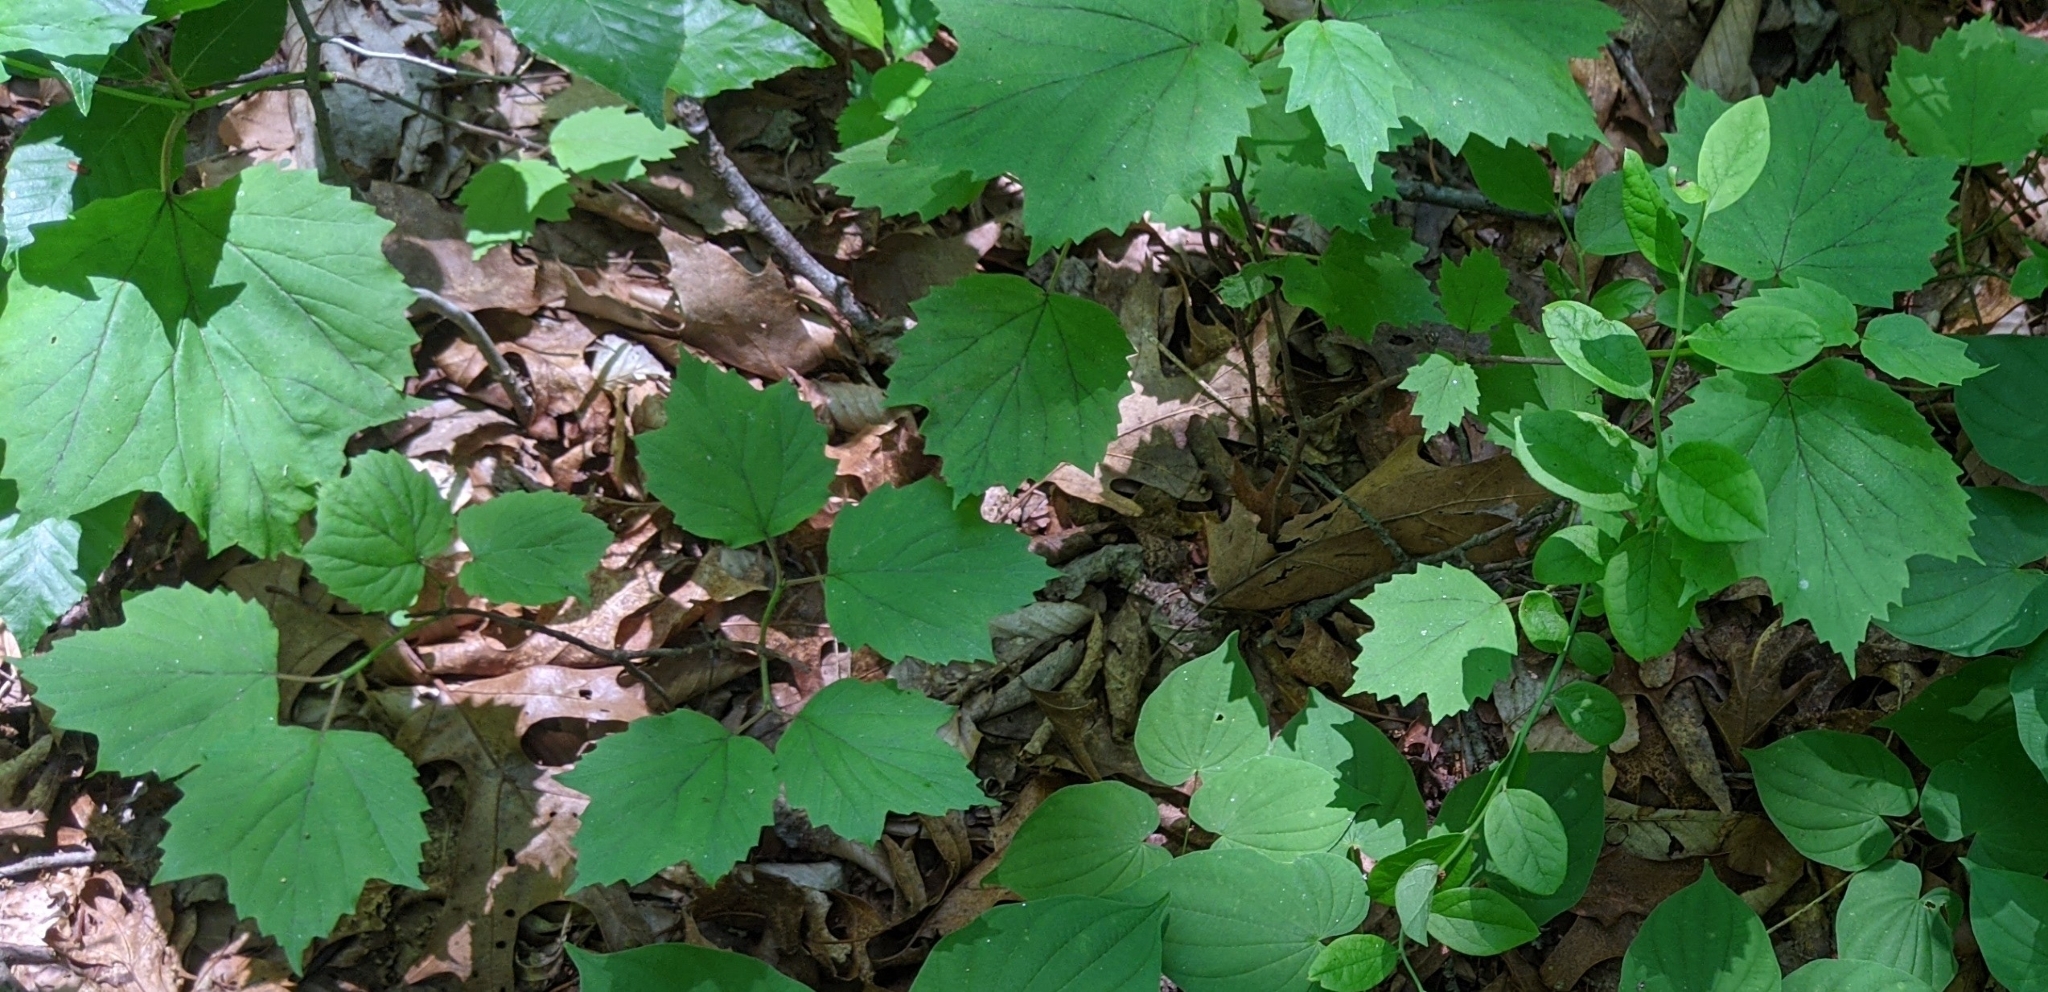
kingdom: Plantae
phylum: Tracheophyta
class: Magnoliopsida
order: Dipsacales
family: Viburnaceae
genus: Viburnum
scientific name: Viburnum acerifolium
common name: Dockmackie
